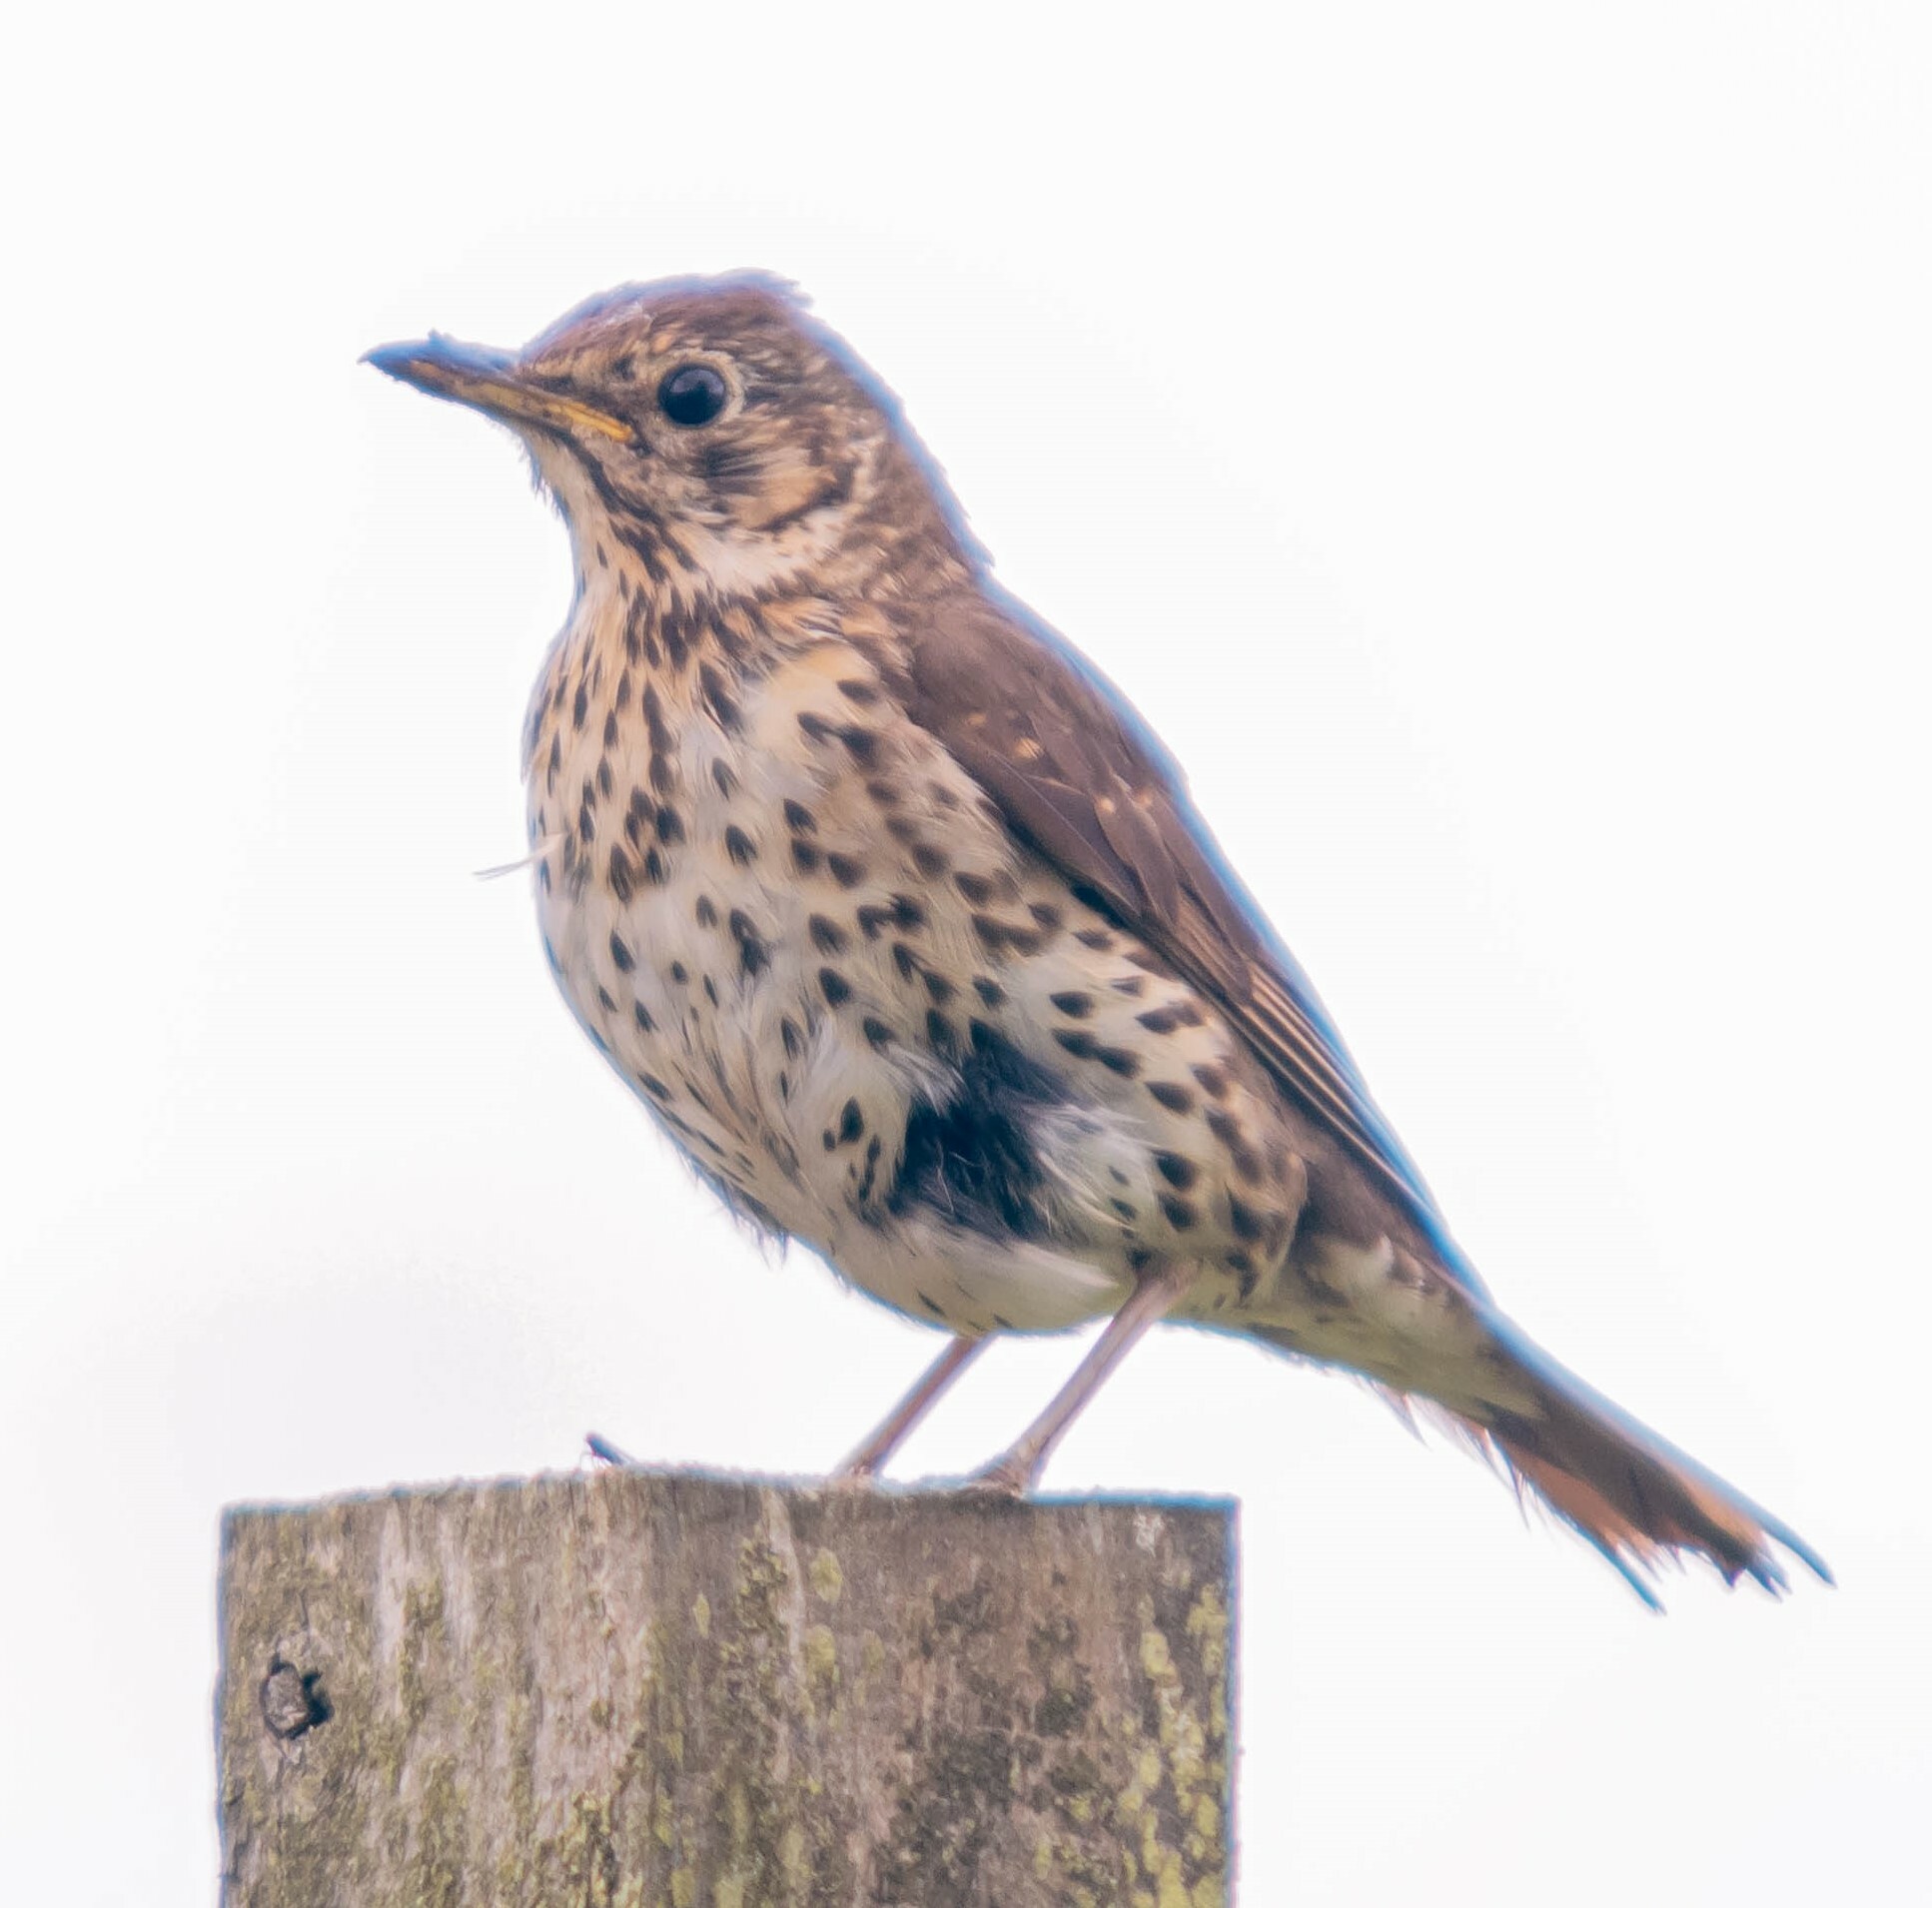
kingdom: Animalia
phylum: Chordata
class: Aves
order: Passeriformes
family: Turdidae
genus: Turdus
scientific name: Turdus philomelos
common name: Song thrush
